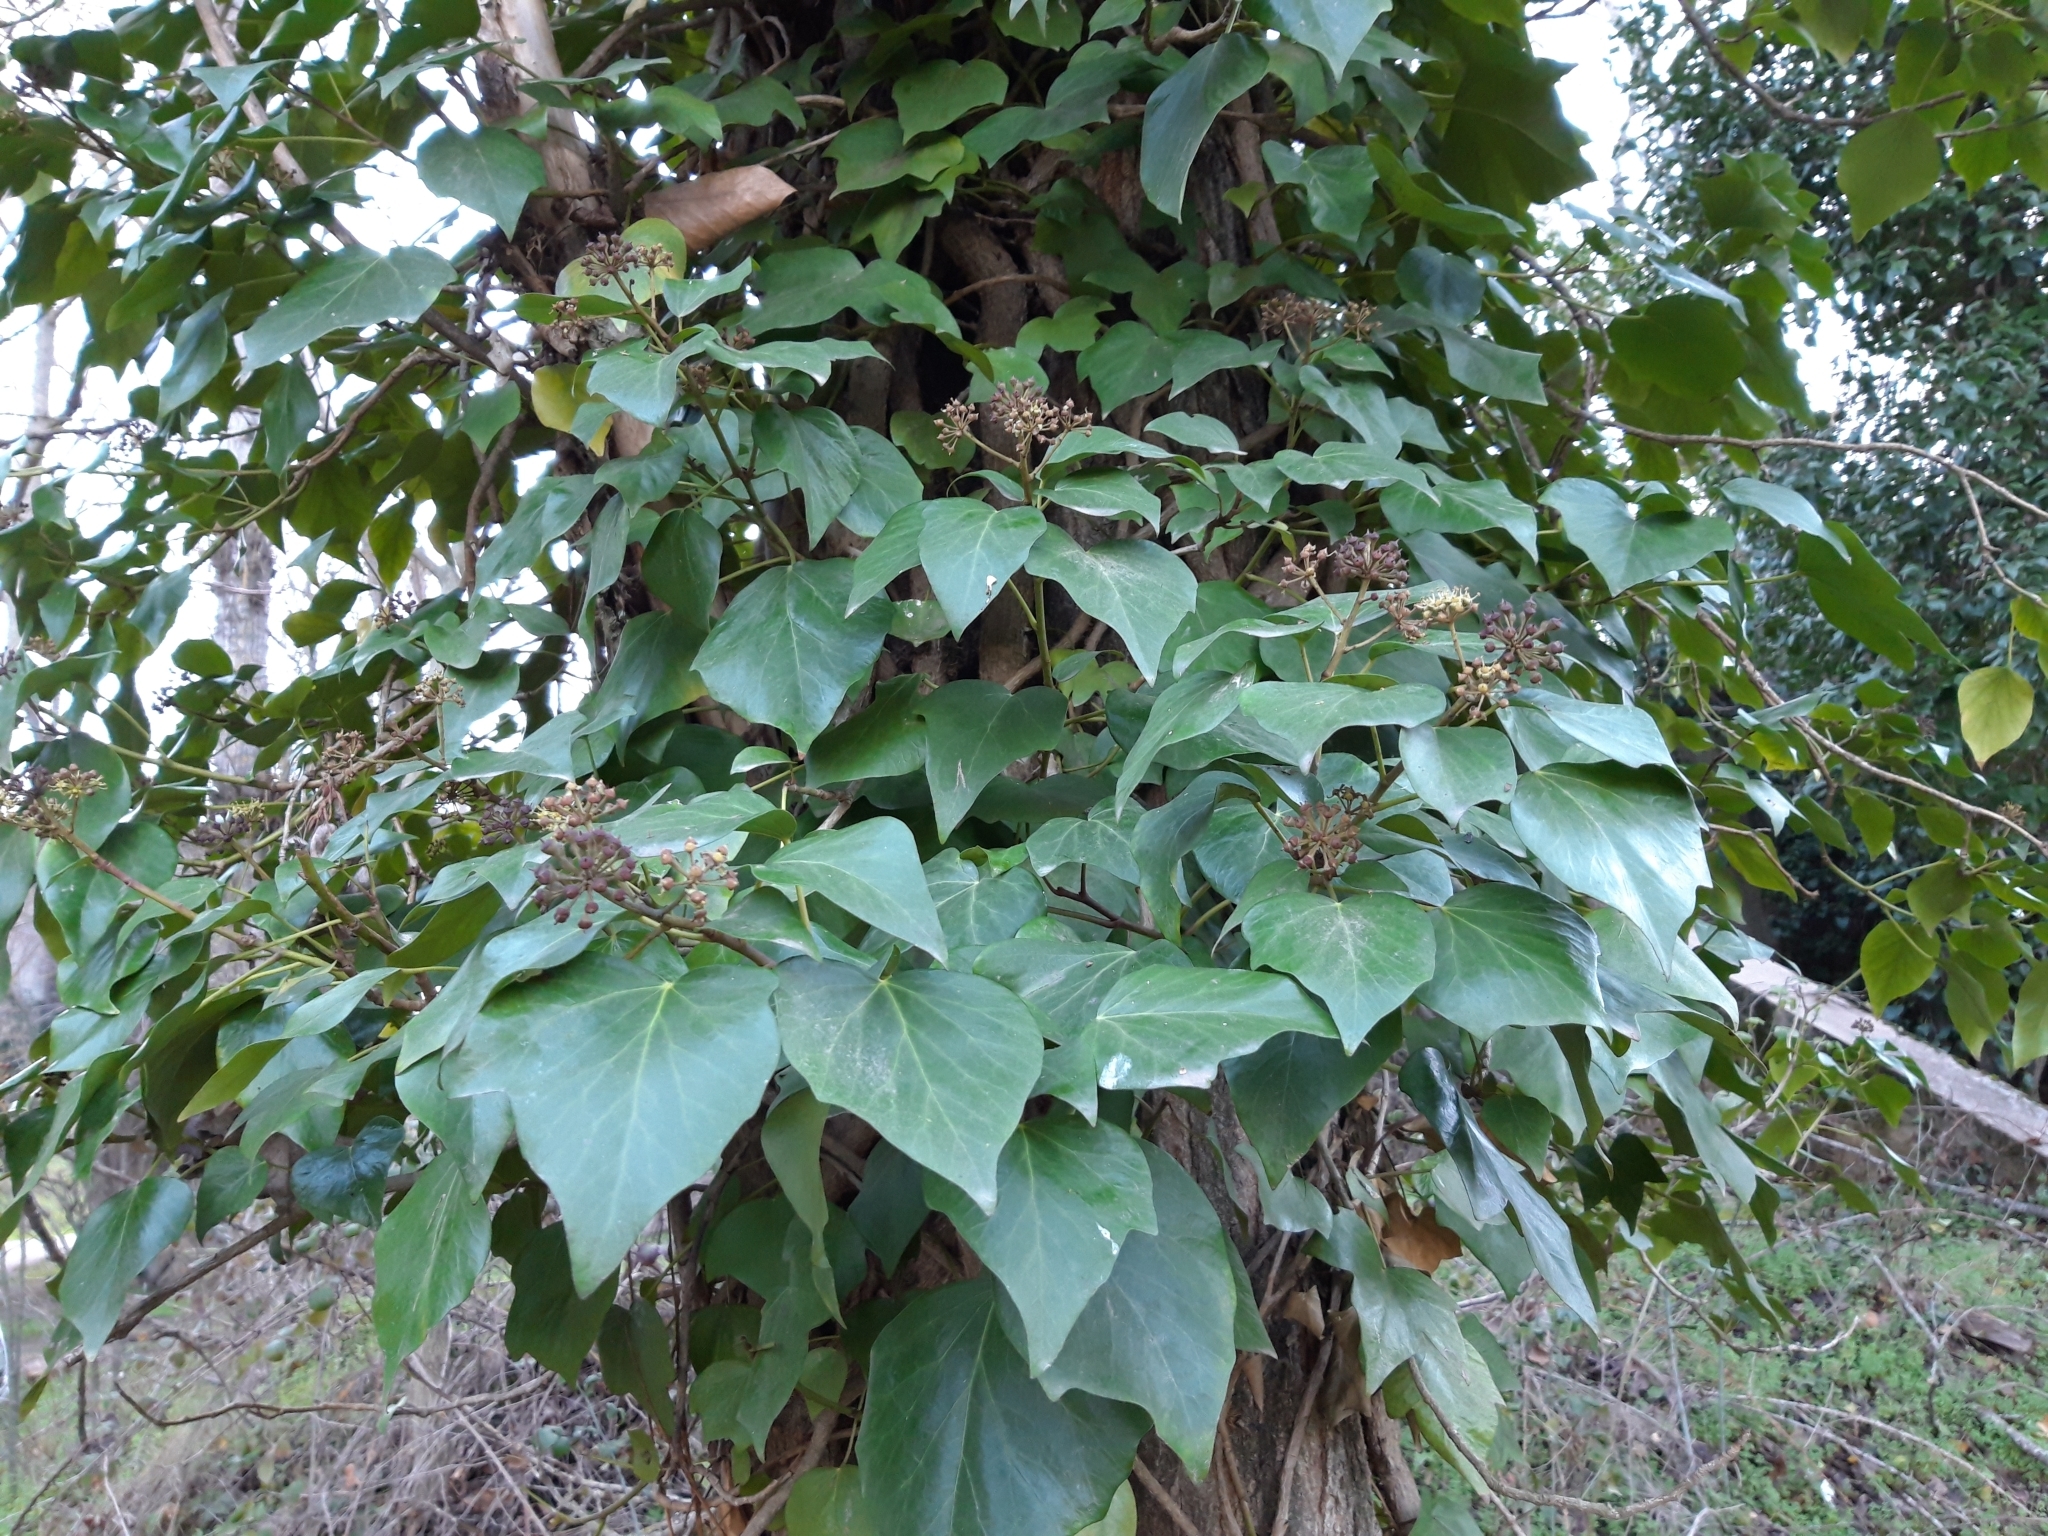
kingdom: Plantae
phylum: Tracheophyta
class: Magnoliopsida
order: Apiales
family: Araliaceae
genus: Hedera
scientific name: Hedera helix
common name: Ivy
